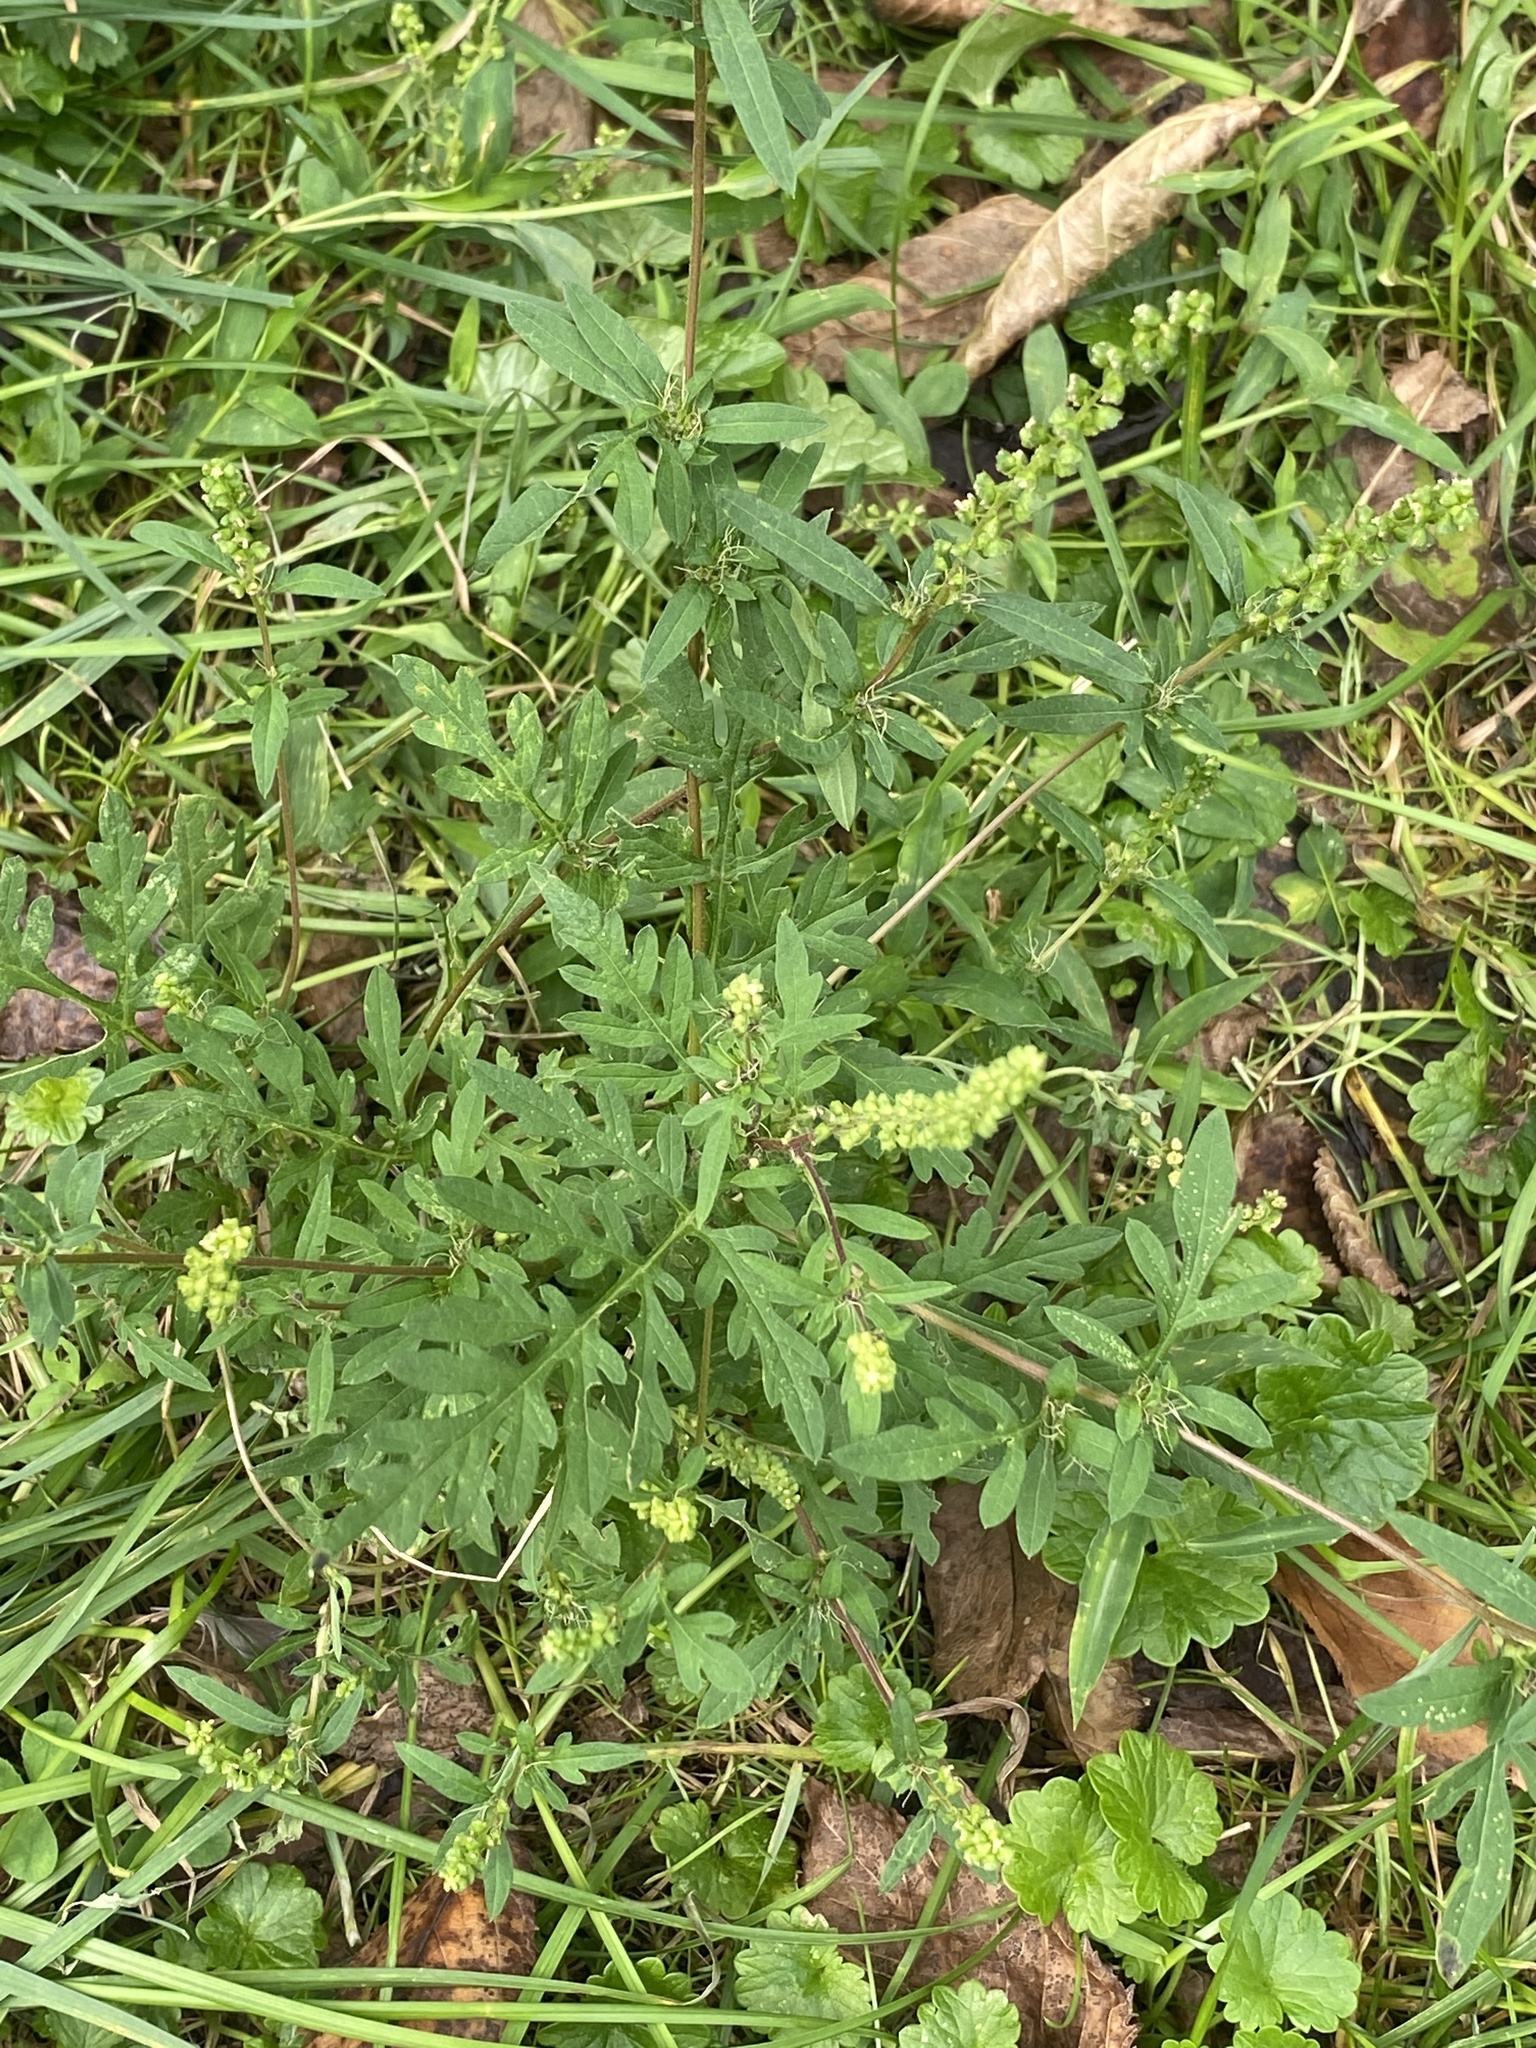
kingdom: Plantae
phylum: Tracheophyta
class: Magnoliopsida
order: Asterales
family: Asteraceae
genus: Ambrosia
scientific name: Ambrosia artemisiifolia
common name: Annual ragweed
